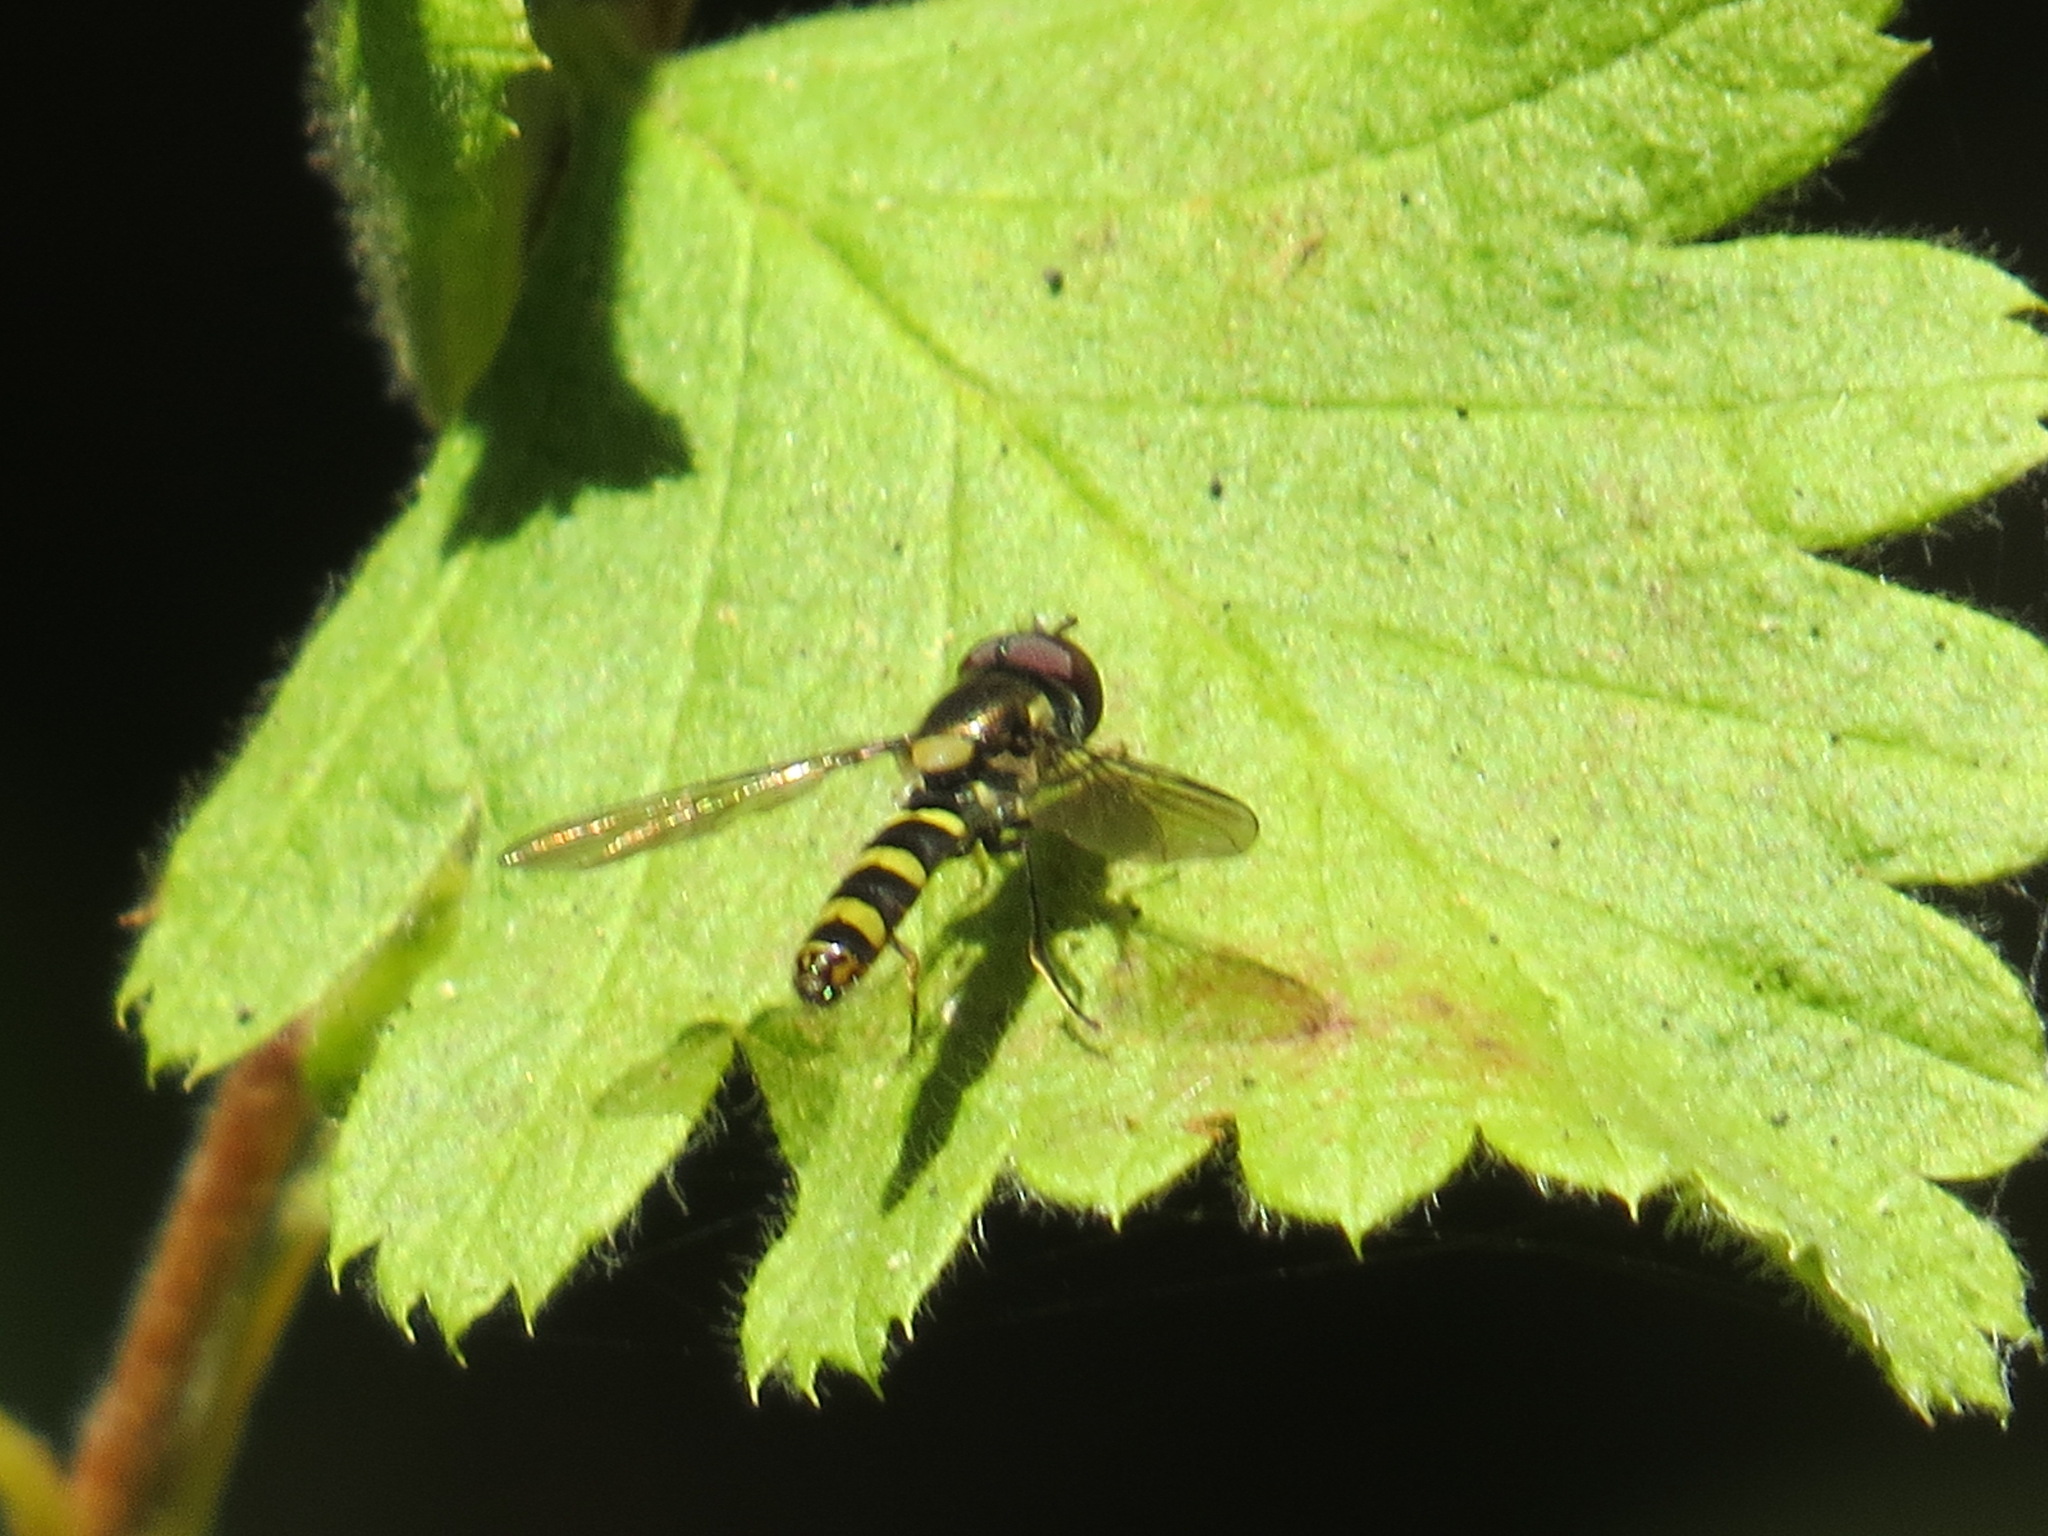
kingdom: Animalia
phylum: Arthropoda
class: Insecta
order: Diptera
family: Syrphidae
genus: Fazia
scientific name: Fazia micrura
